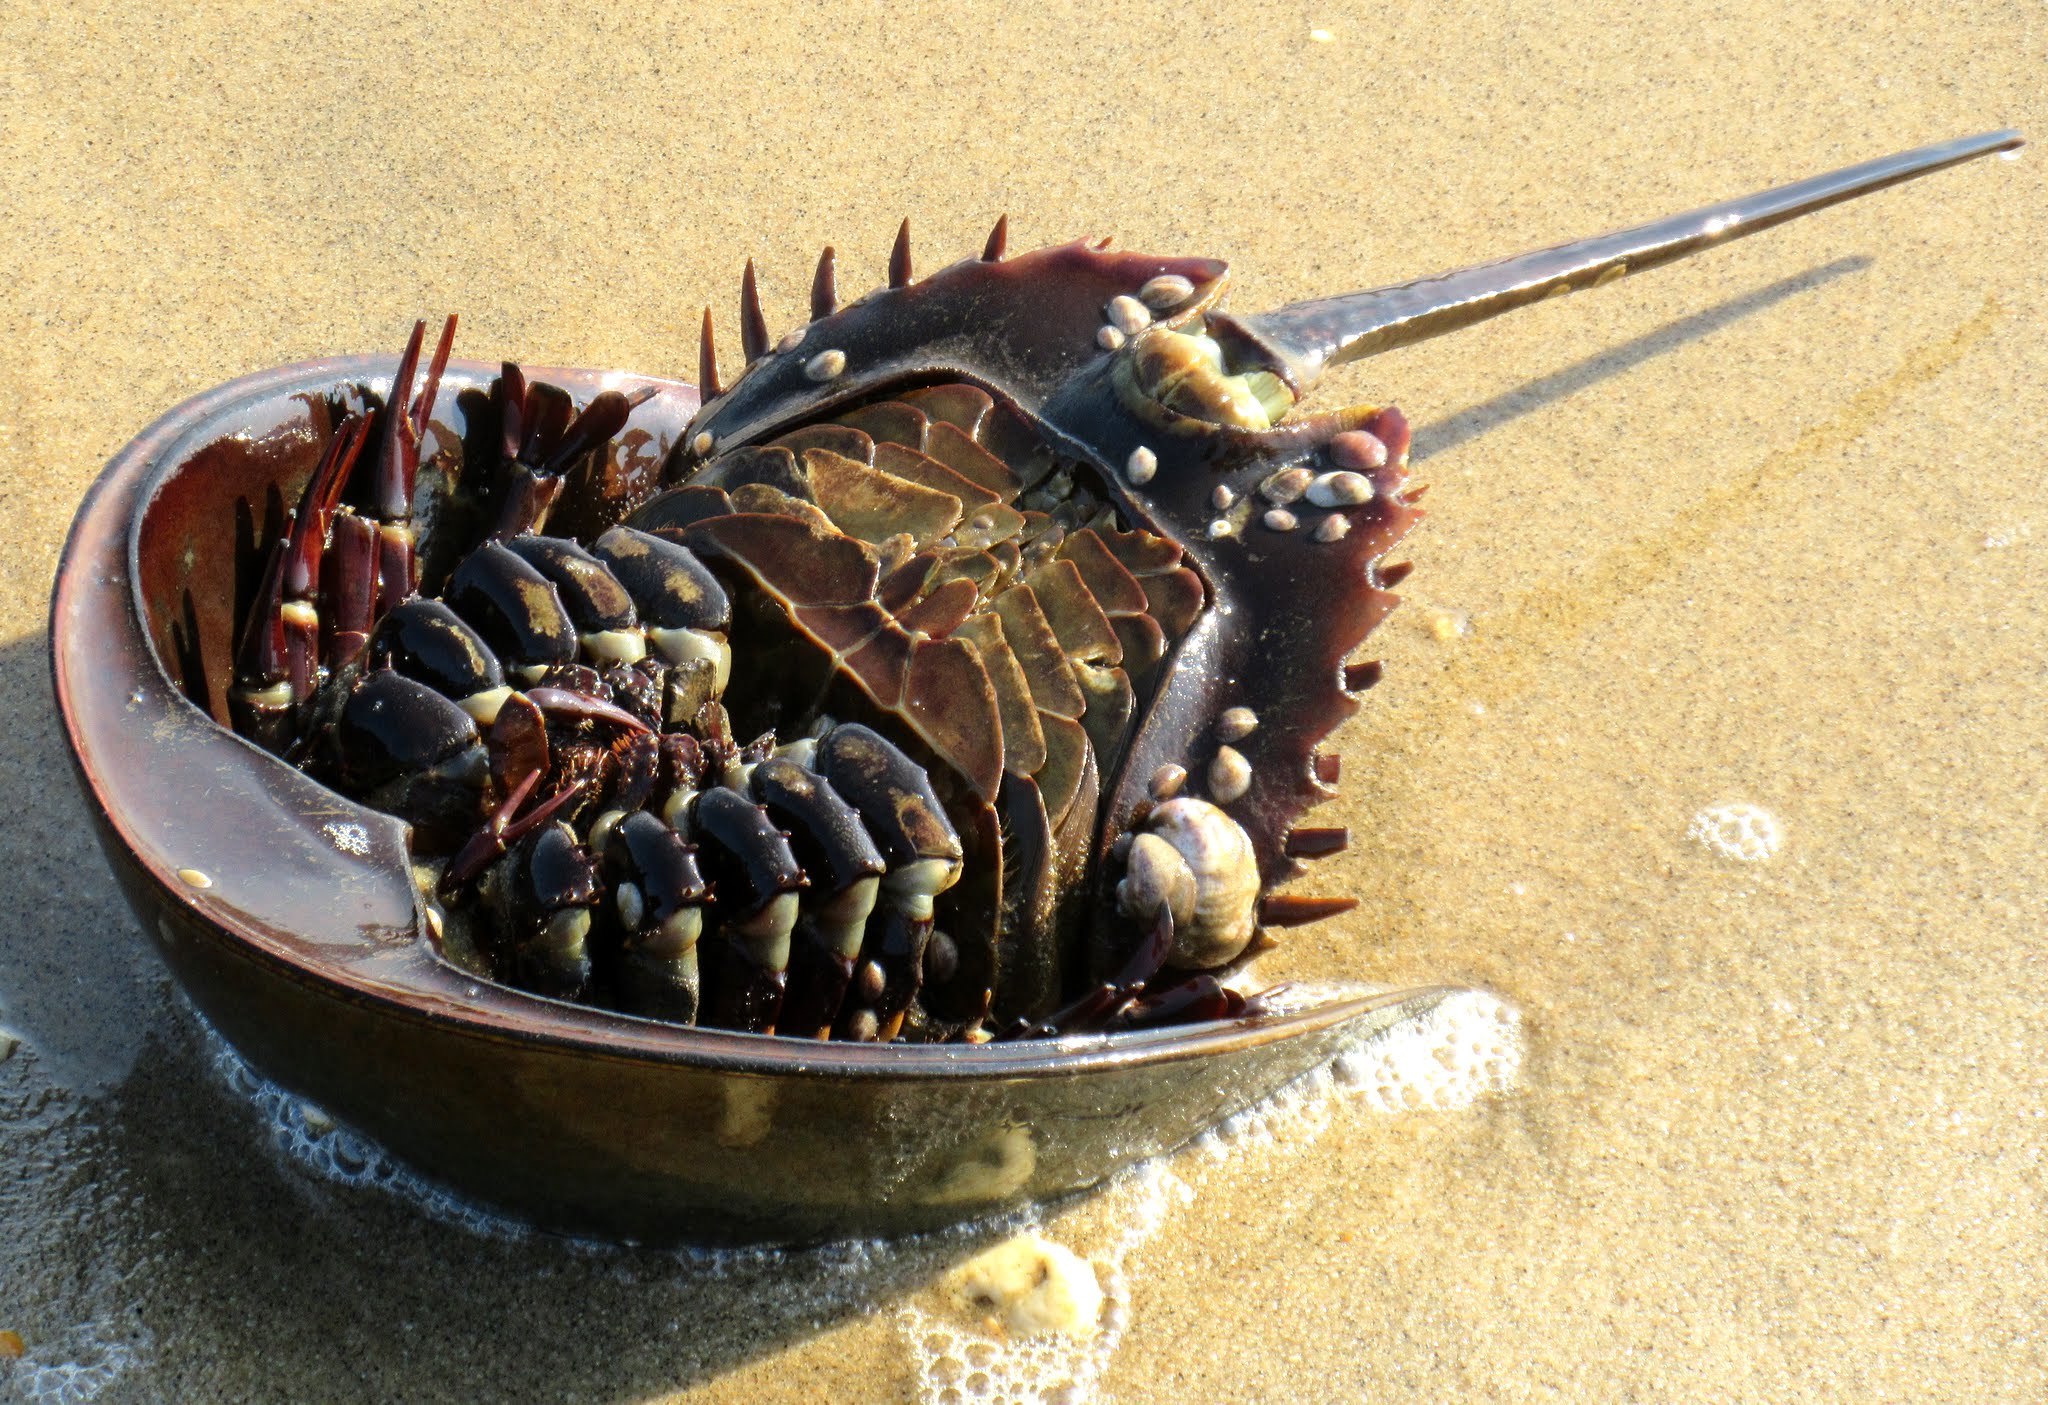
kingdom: Animalia
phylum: Arthropoda
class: Merostomata
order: Xiphosurida
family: Limulidae
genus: Limulus
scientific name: Limulus polyphemus
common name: Horseshoe crab
